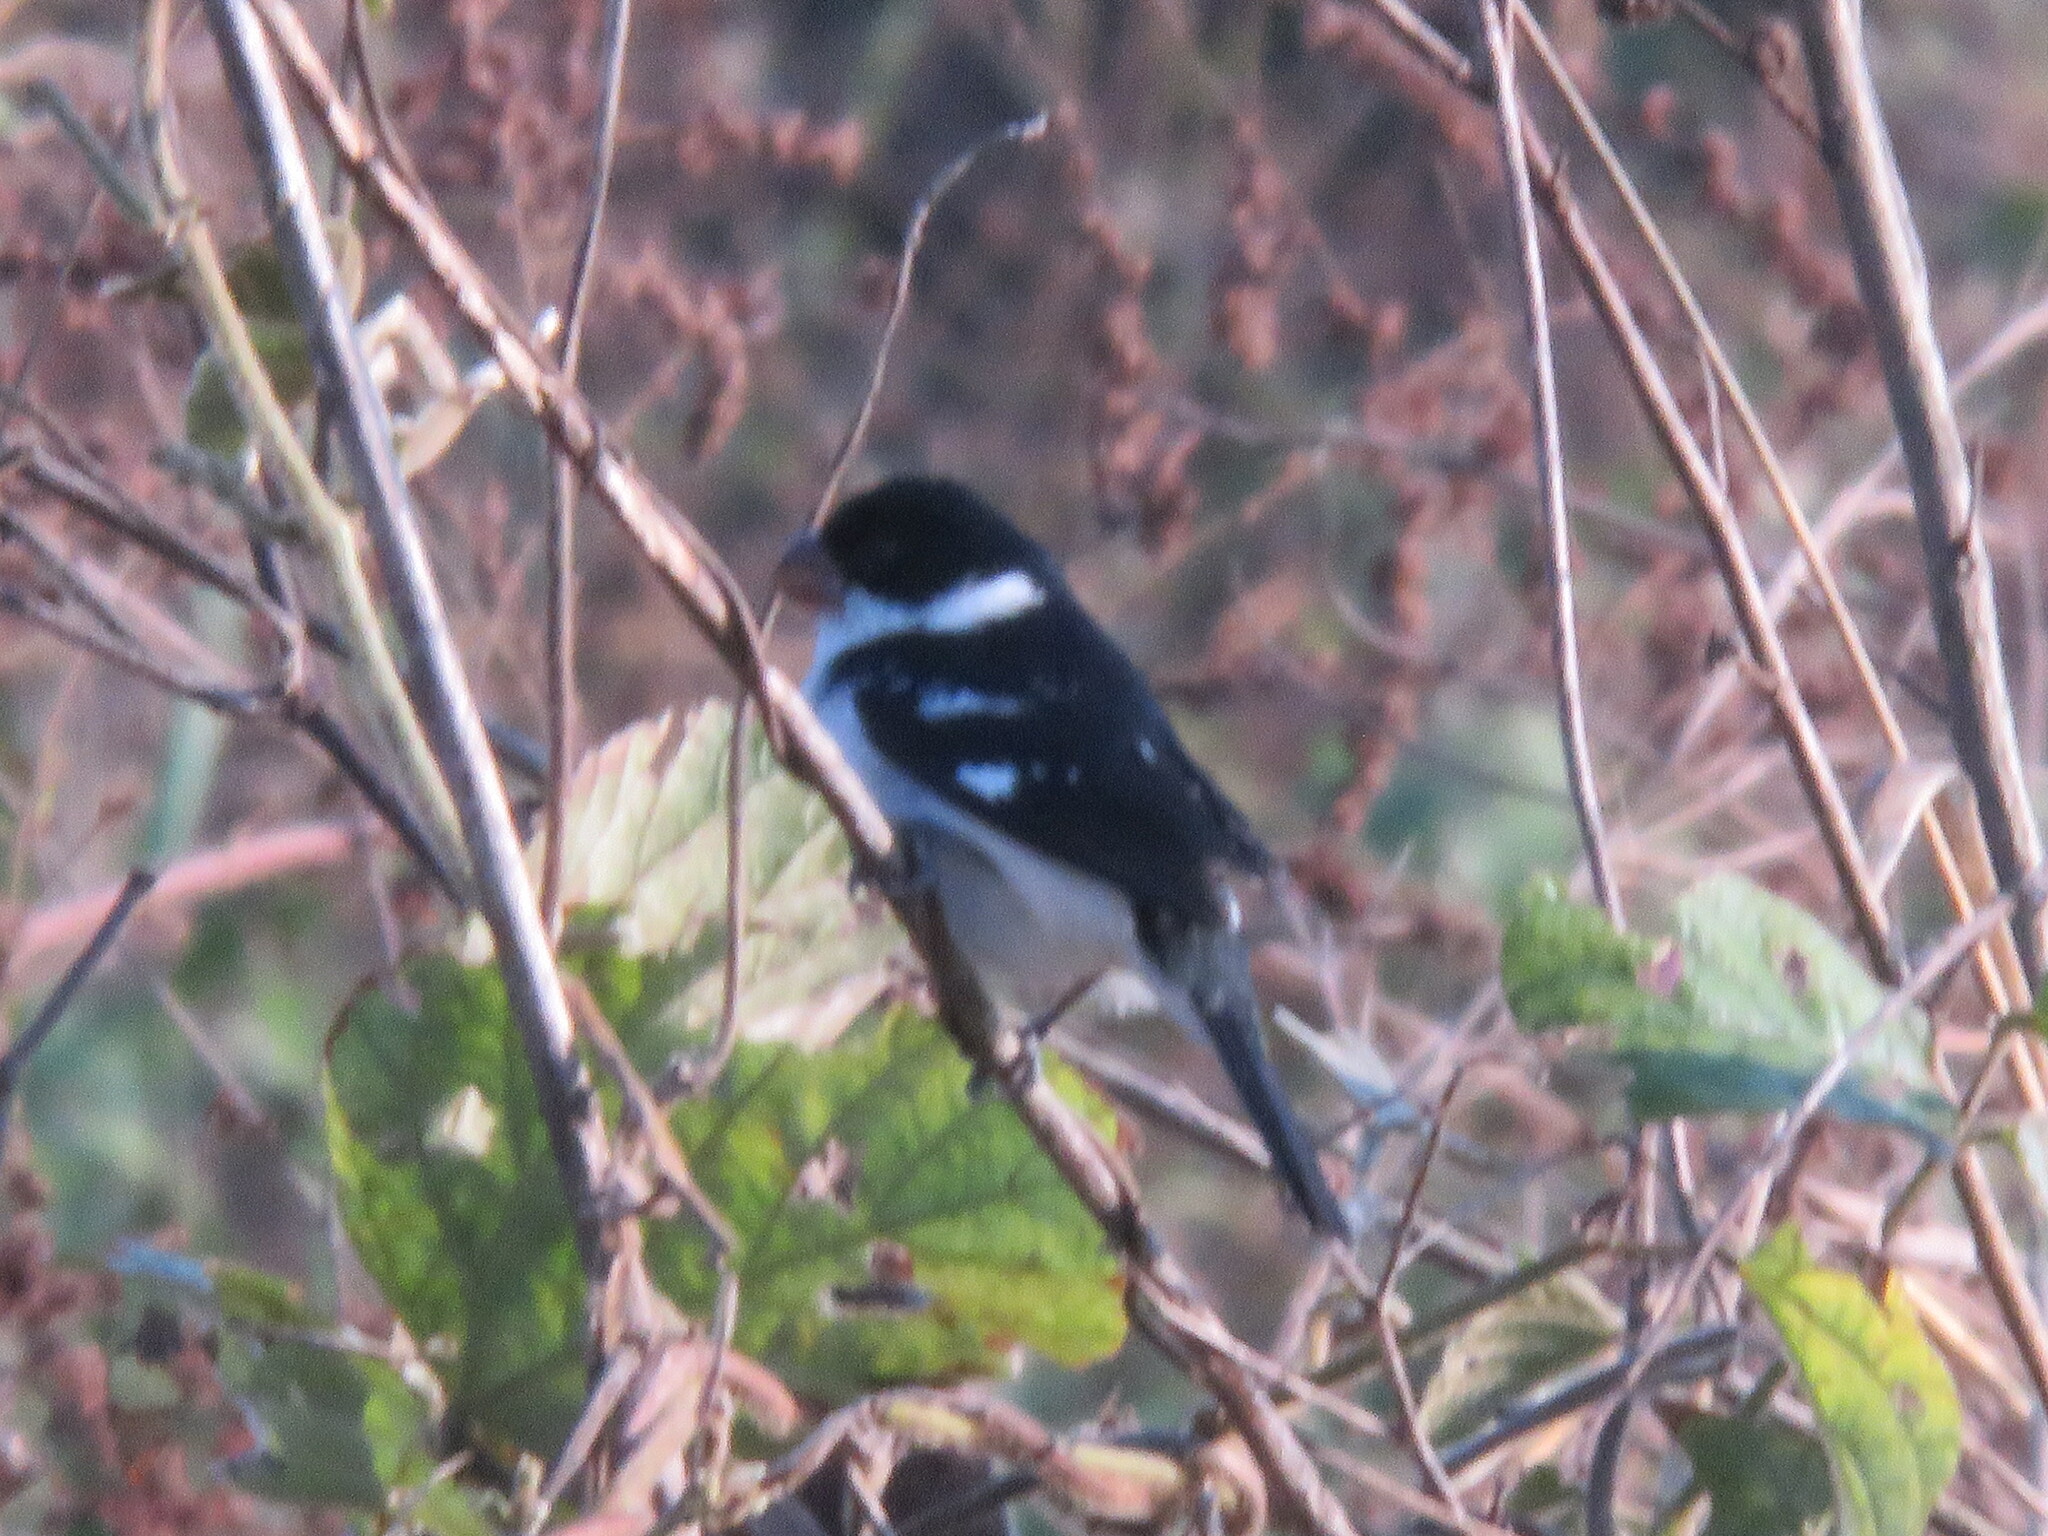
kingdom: Animalia
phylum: Chordata
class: Aves
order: Passeriformes
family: Thraupidae
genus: Sporophila
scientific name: Sporophila americana
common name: Wing-barred seedeater
